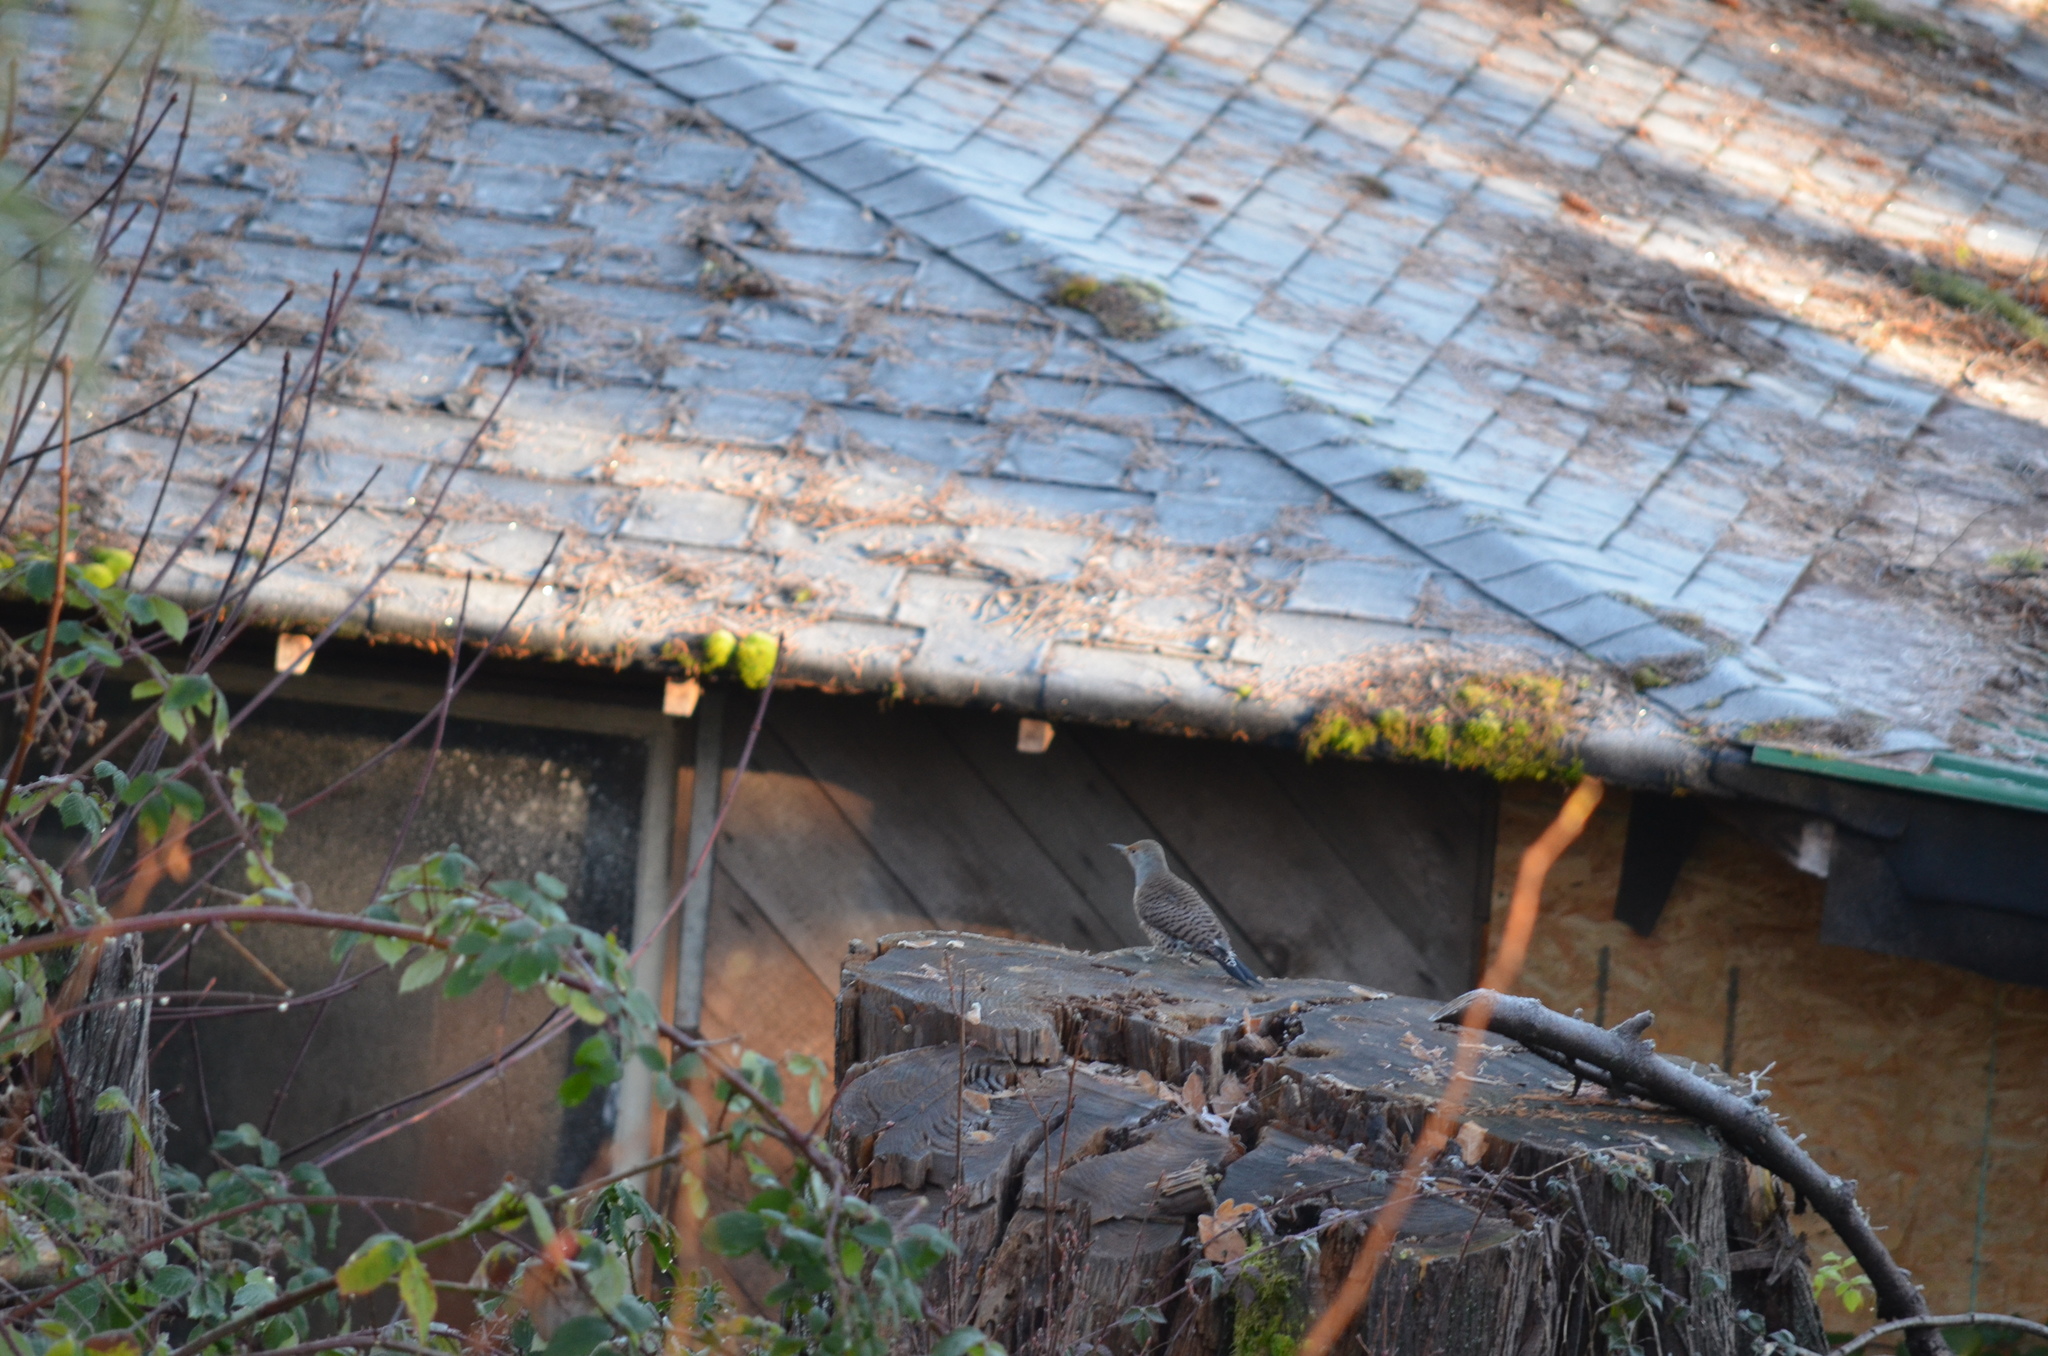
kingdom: Animalia
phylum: Chordata
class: Aves
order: Piciformes
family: Picidae
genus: Colaptes
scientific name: Colaptes auratus
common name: Northern flicker
